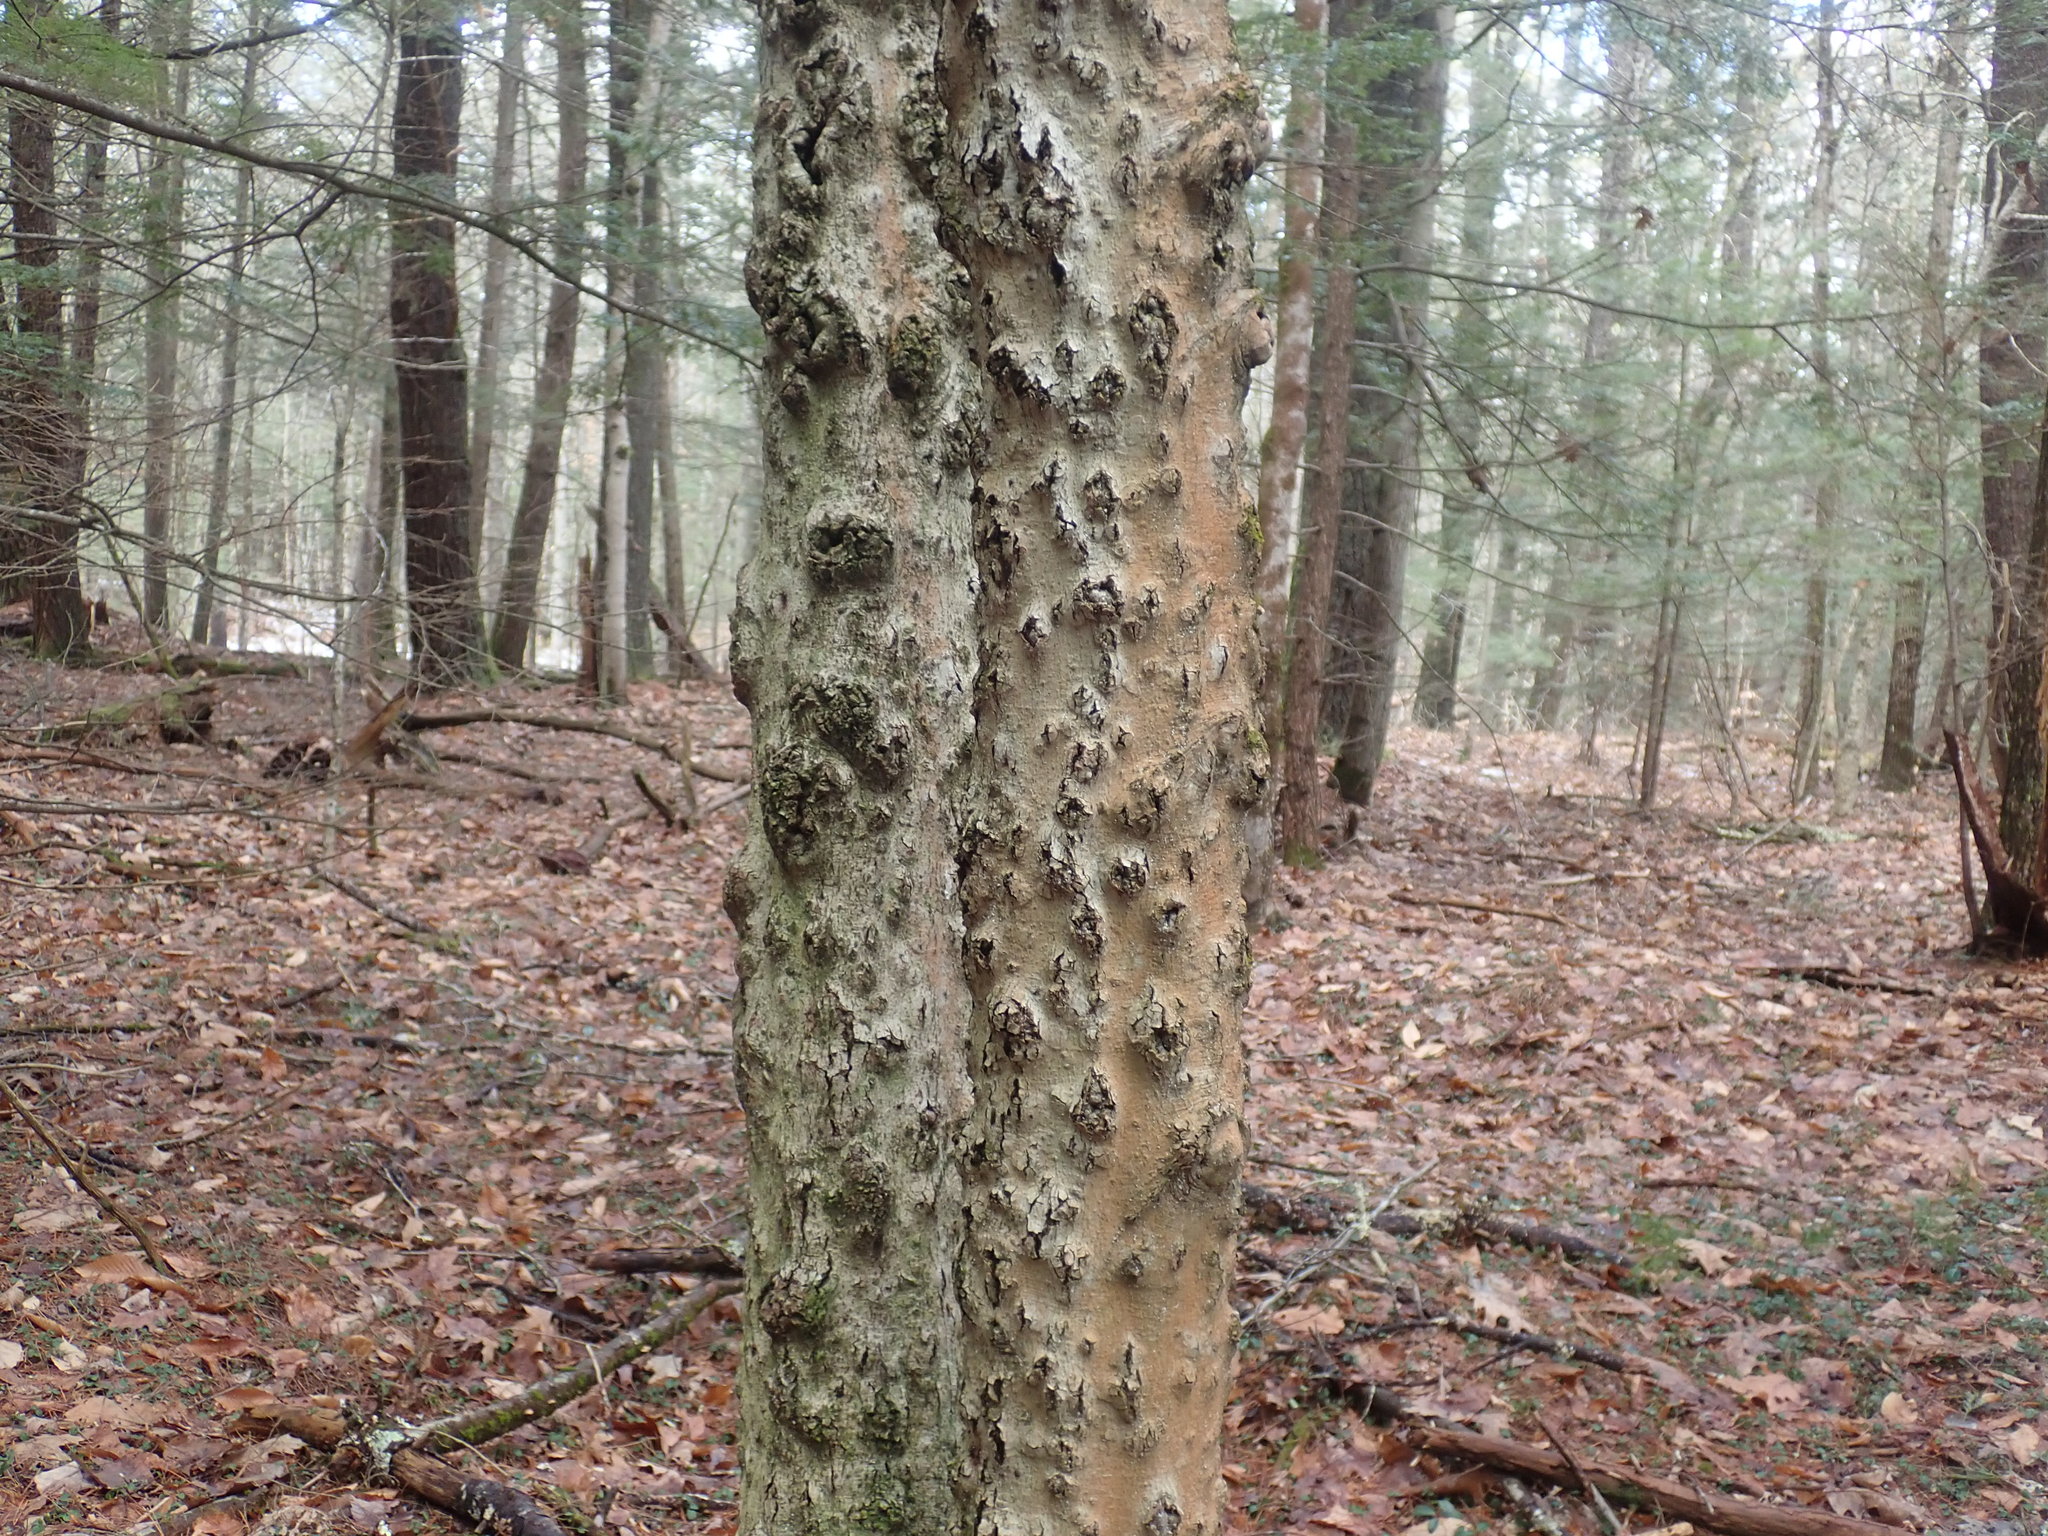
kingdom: Fungi
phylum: Ascomycota
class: Sordariomycetes
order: Hypocreales
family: Nectriaceae
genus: Neonectria
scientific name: Neonectria faginata
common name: Beech bark canker
